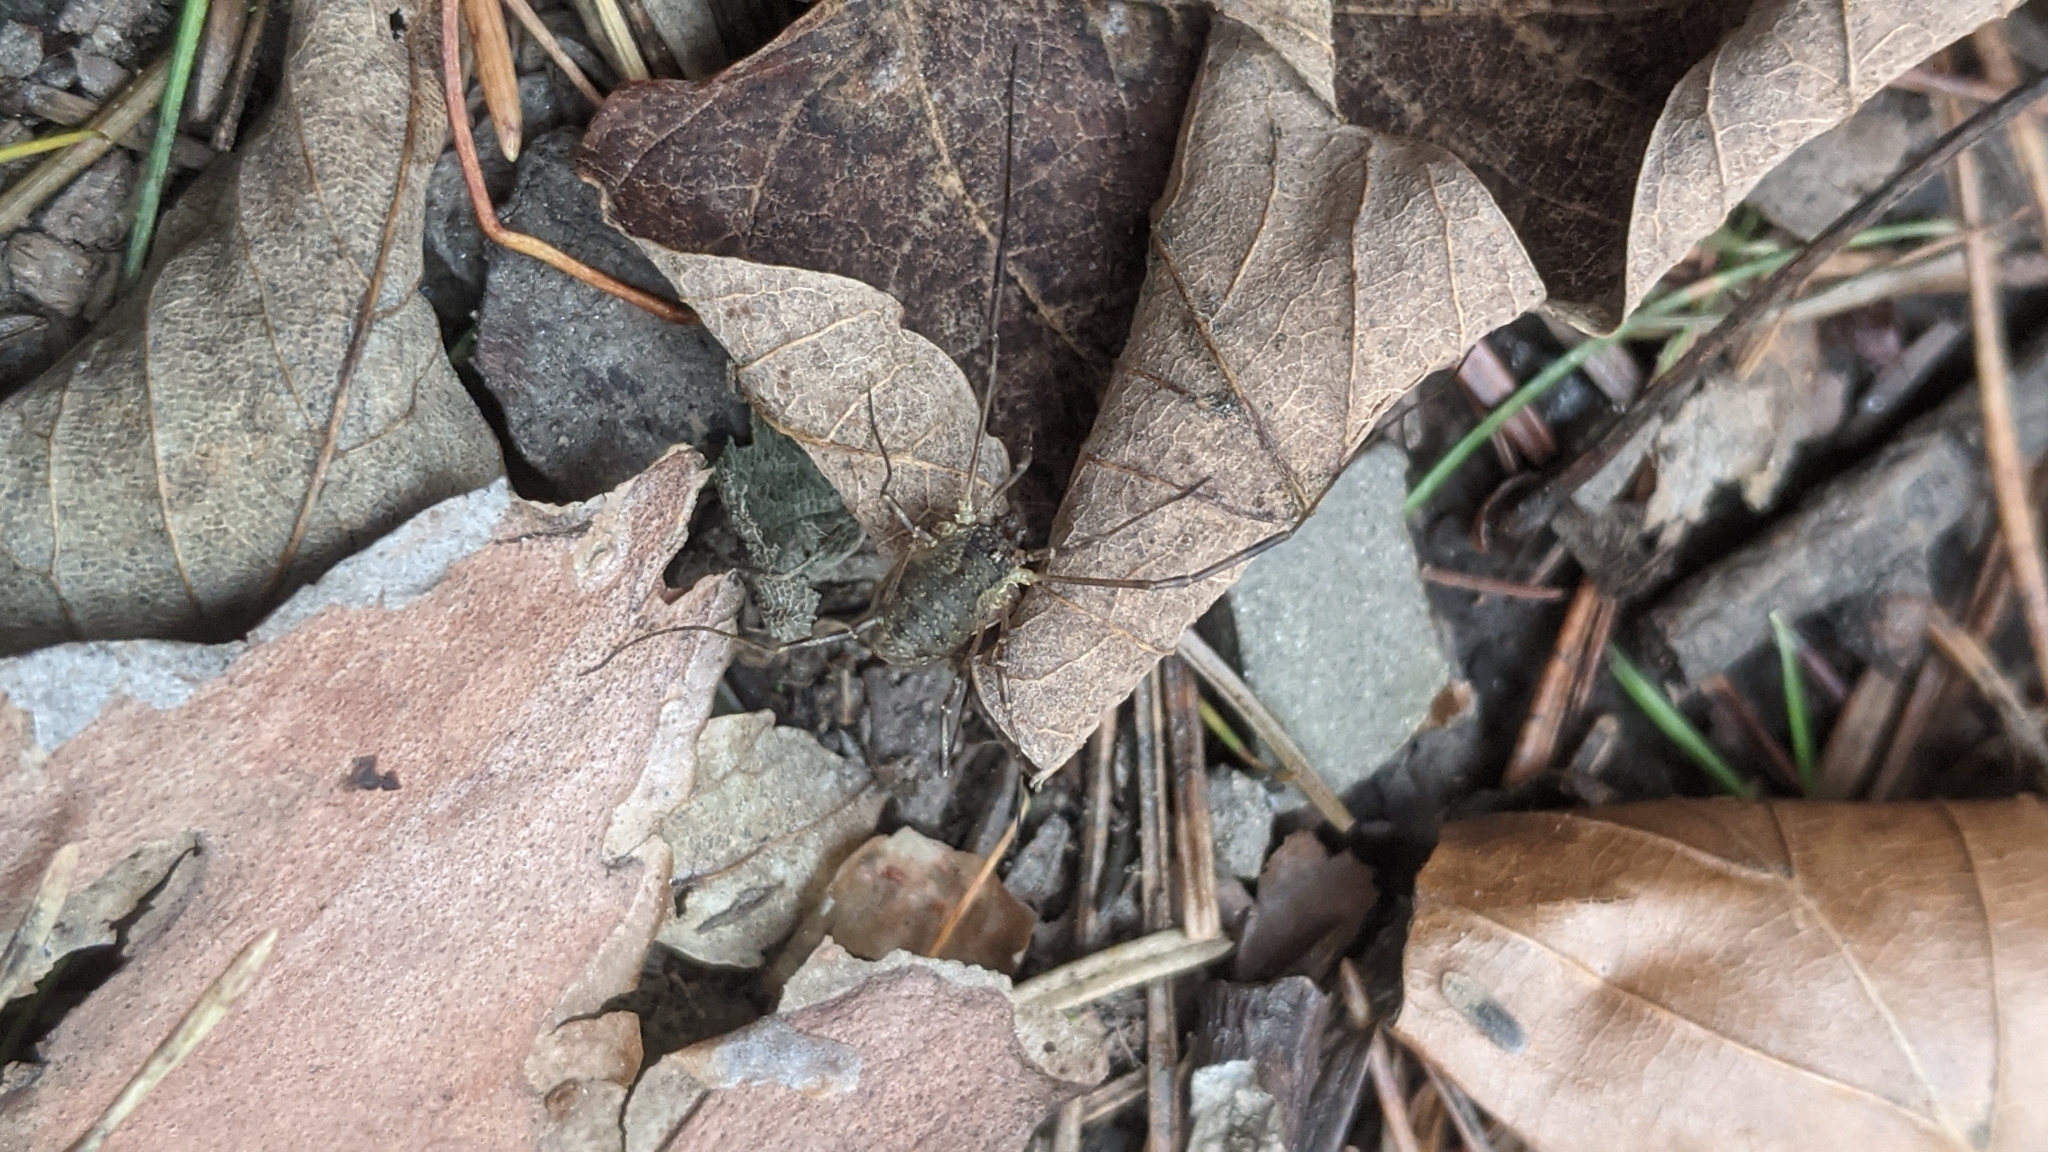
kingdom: Animalia
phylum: Arthropoda
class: Arachnida
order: Opiliones
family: Phalangiidae
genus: Oligolophus
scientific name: Oligolophus tridens
